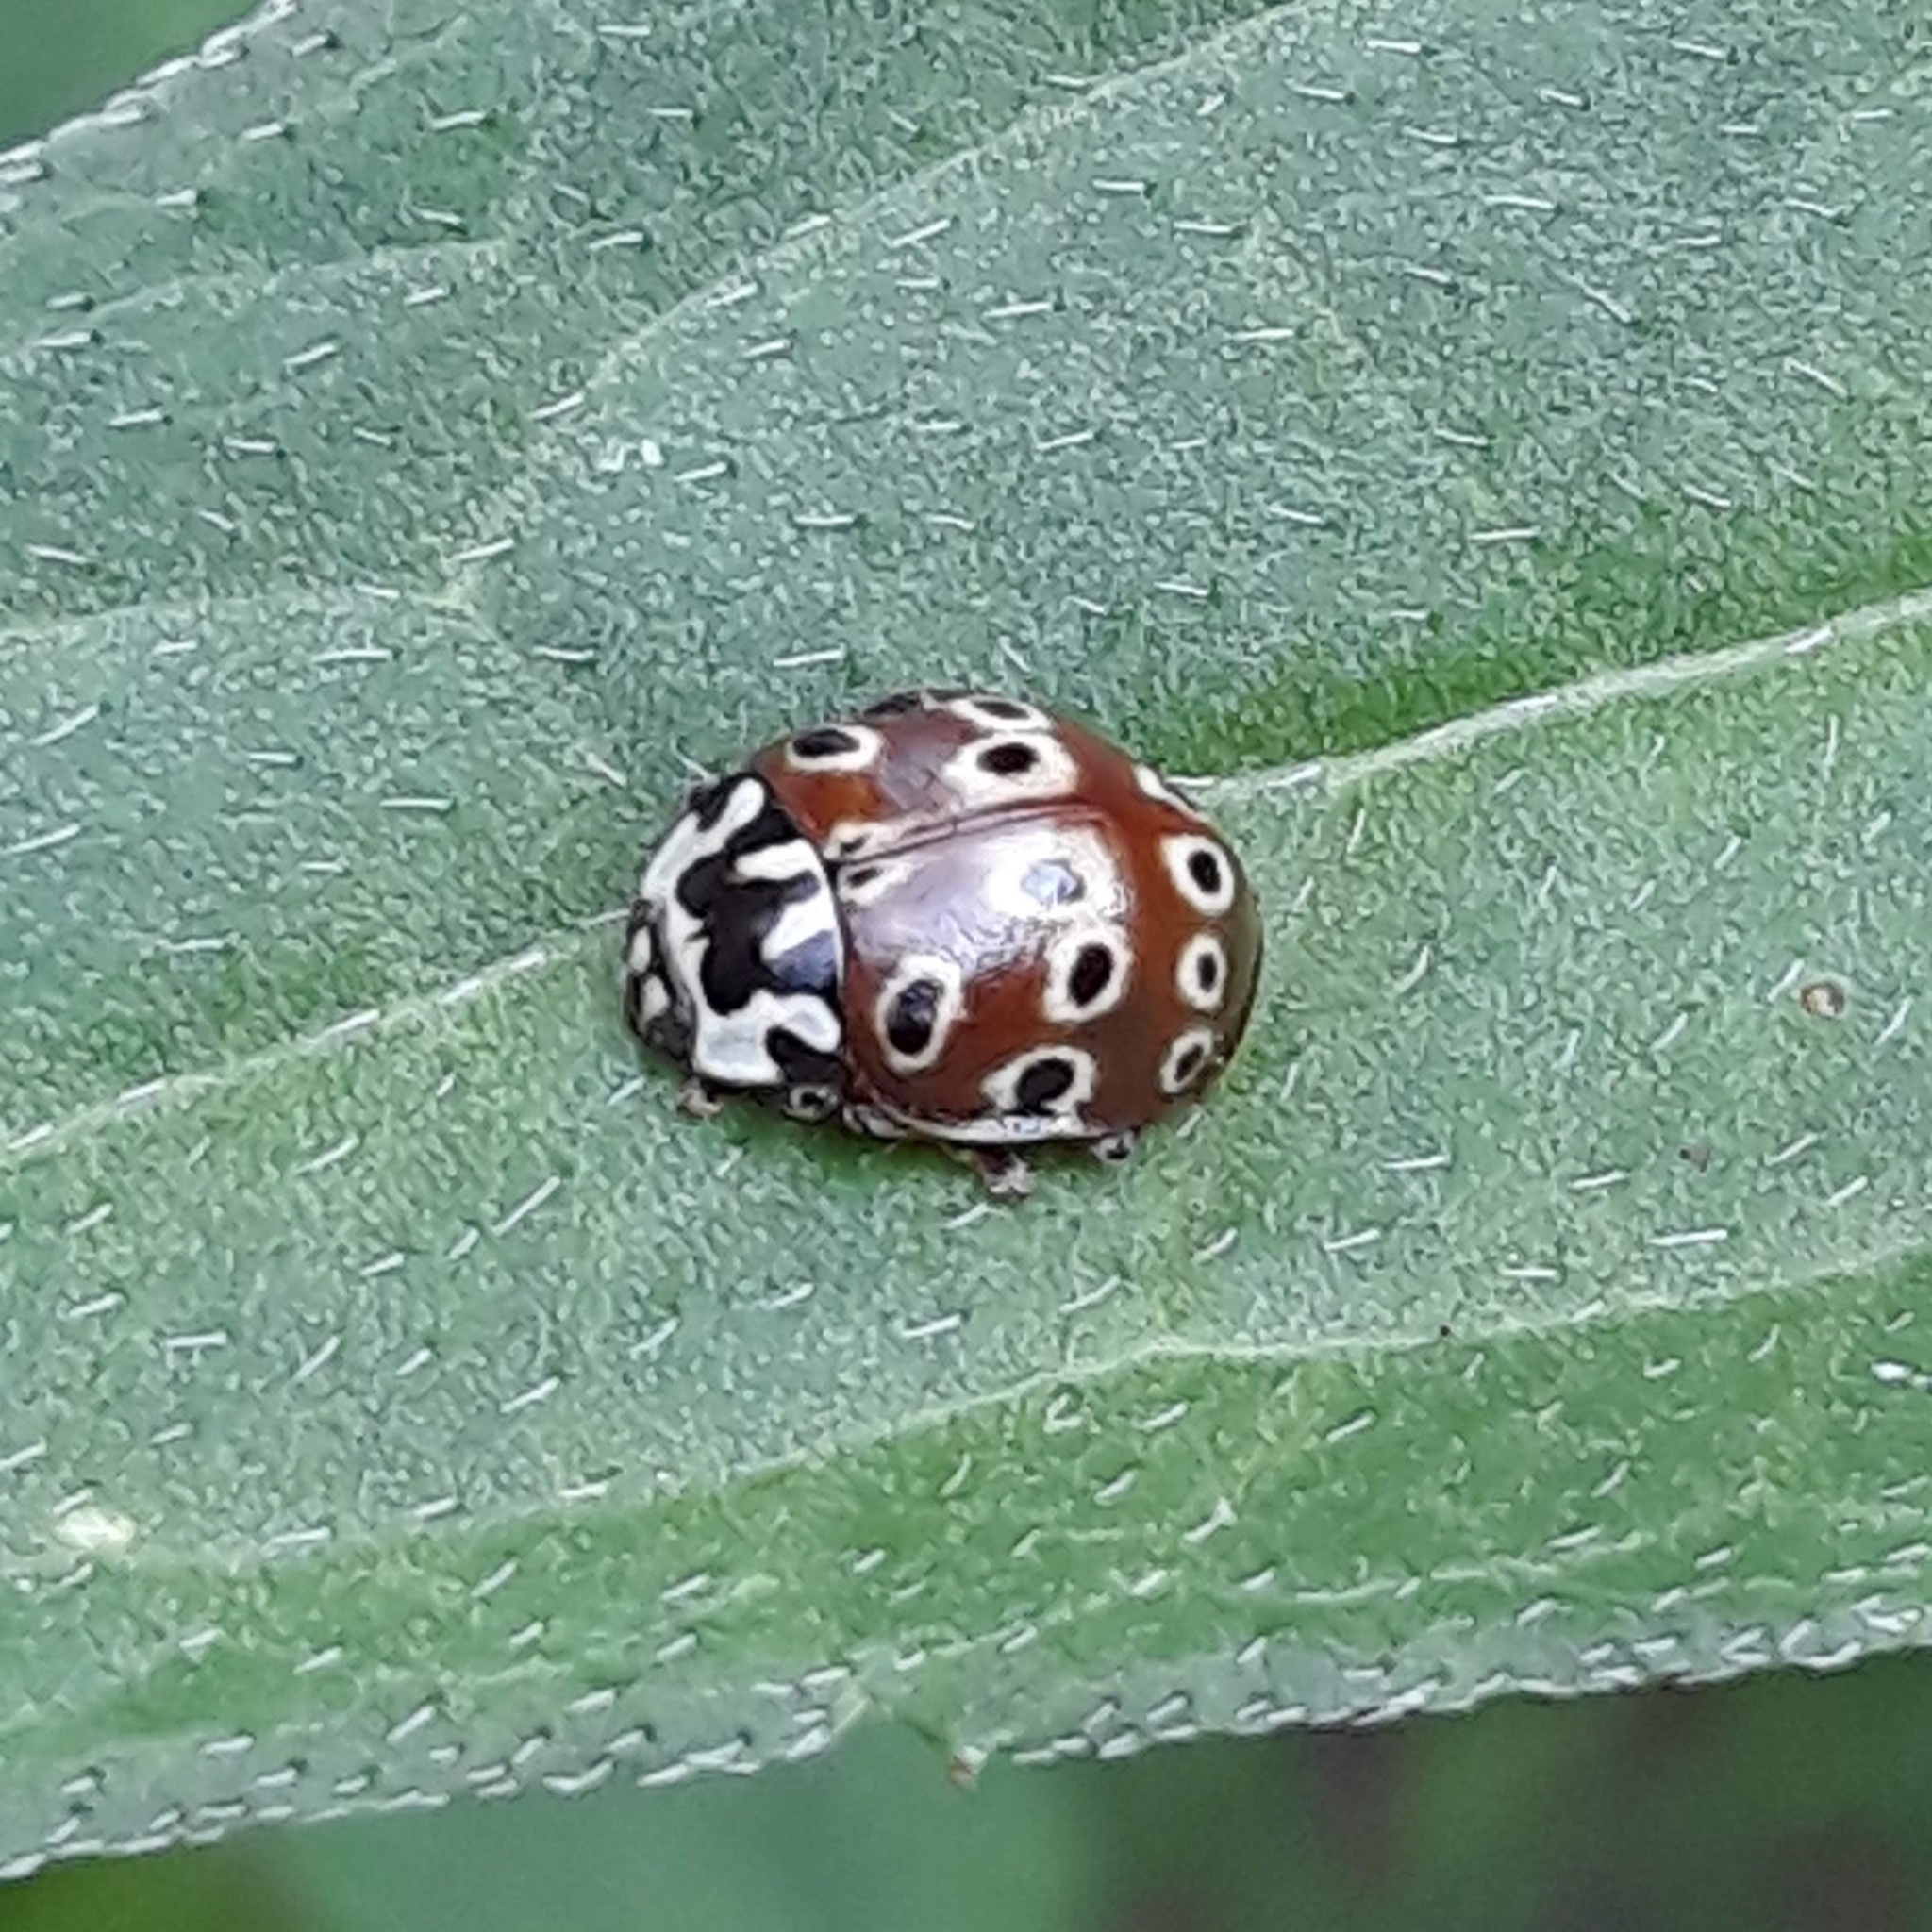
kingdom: Animalia
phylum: Arthropoda
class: Insecta
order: Coleoptera
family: Coccinellidae
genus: Anatis
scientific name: Anatis mali
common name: Eye-spotted lady beetle
